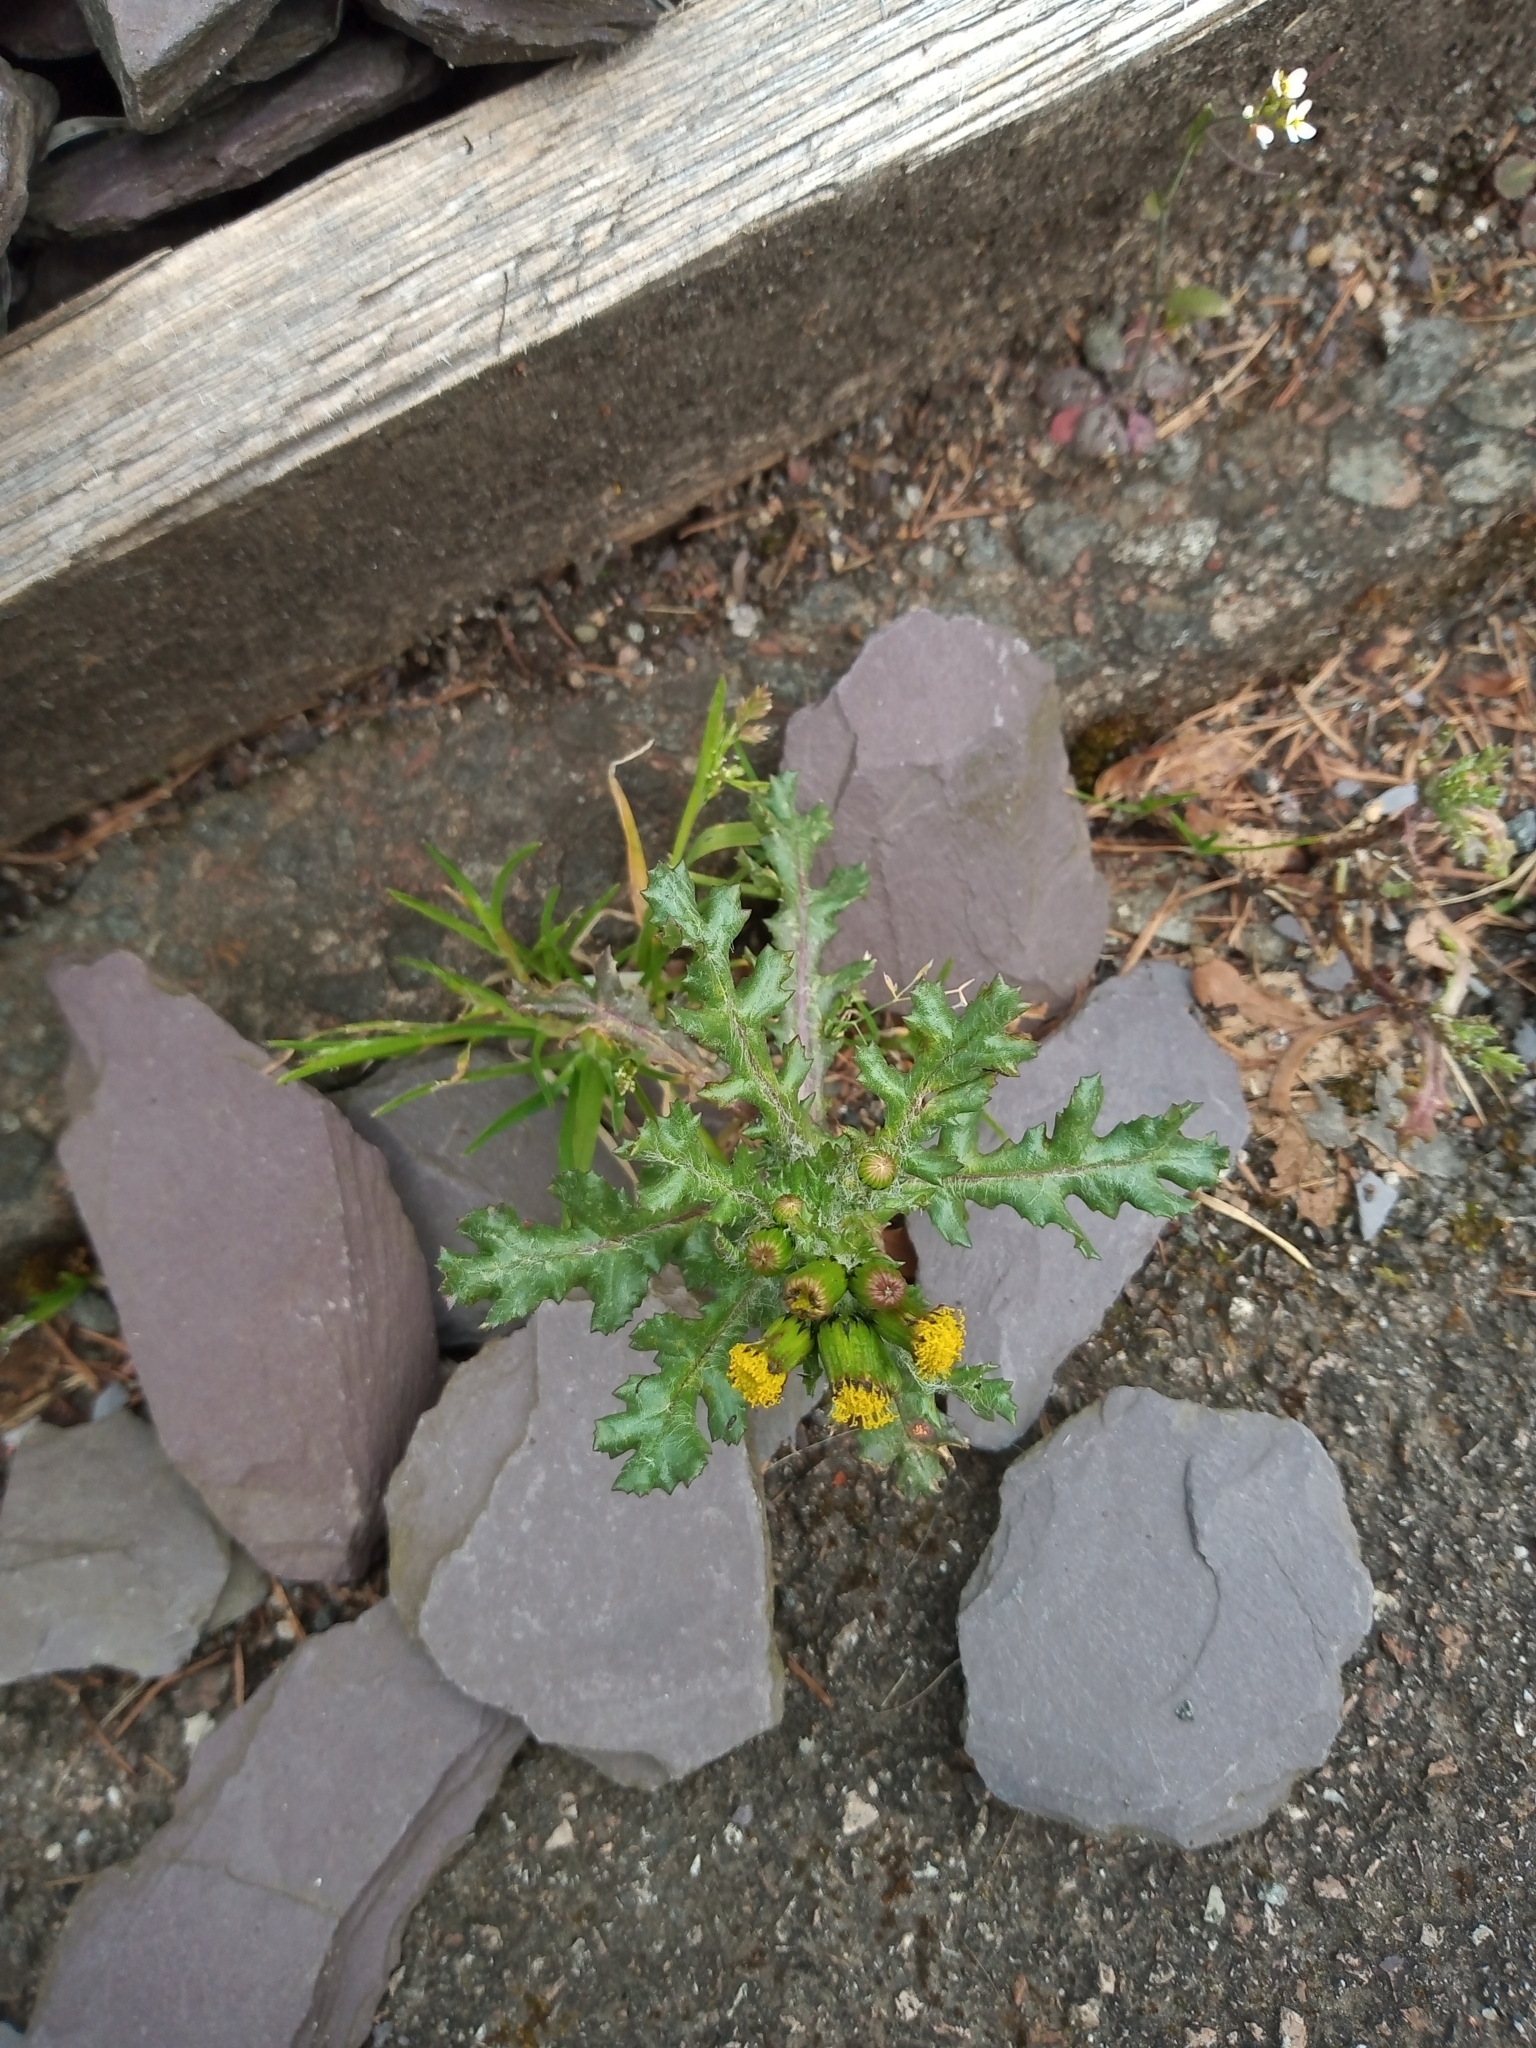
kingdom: Plantae
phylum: Tracheophyta
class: Magnoliopsida
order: Asterales
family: Asteraceae
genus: Senecio
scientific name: Senecio vulgaris
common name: Old-man-in-the-spring
